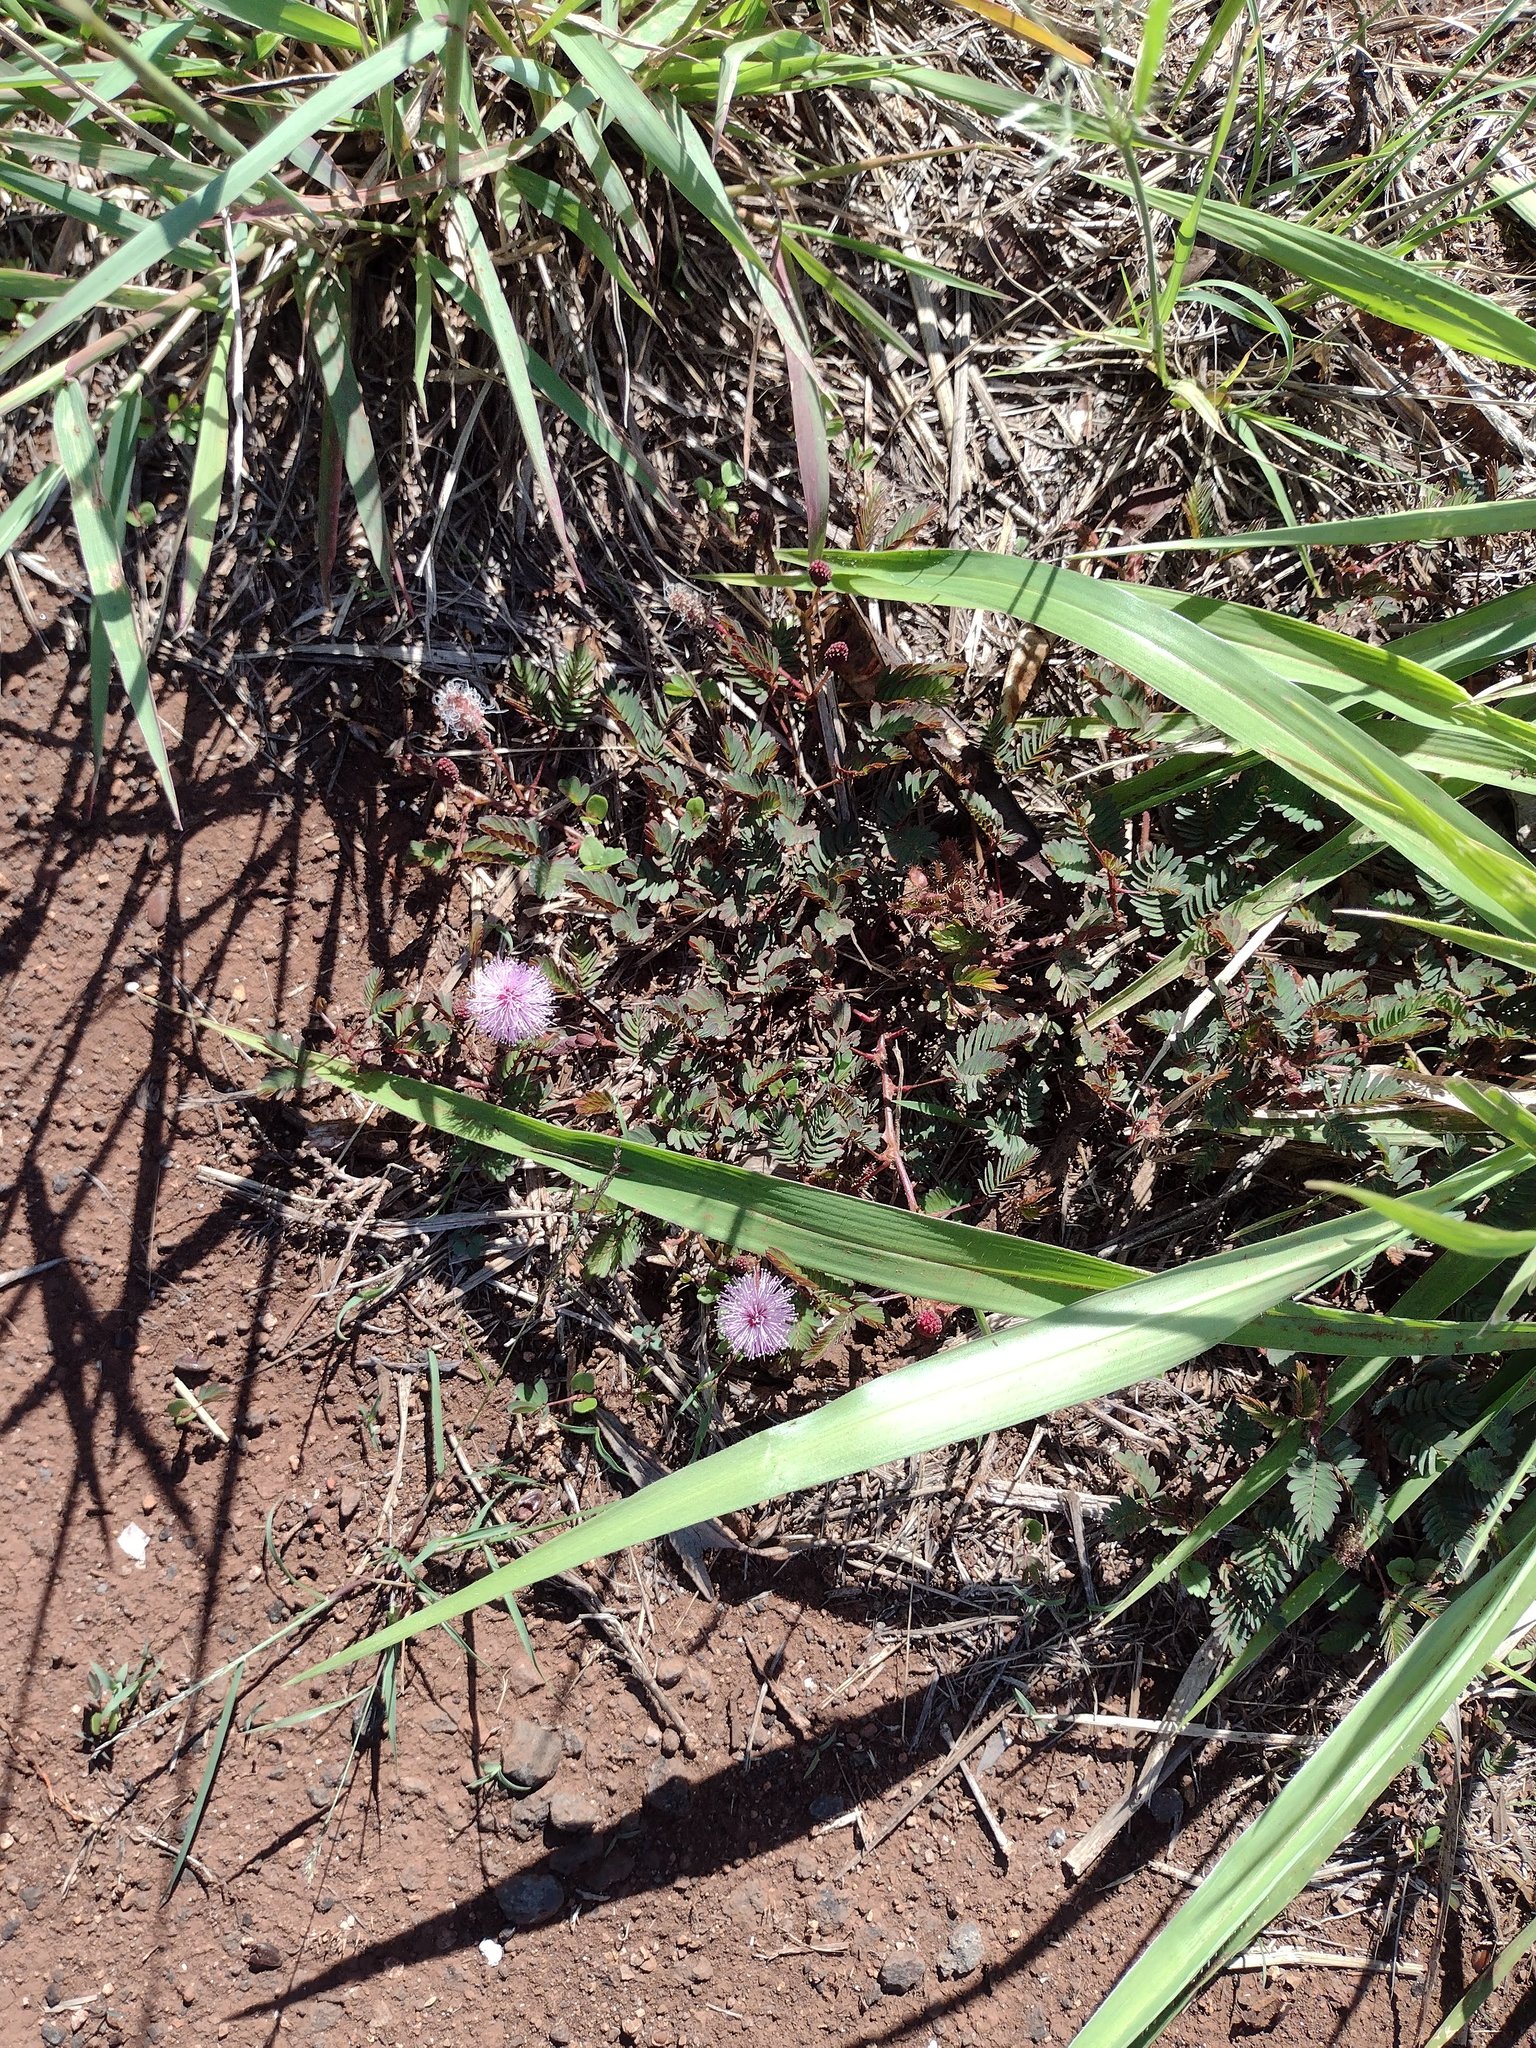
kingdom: Plantae
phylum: Tracheophyta
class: Magnoliopsida
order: Fabales
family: Fabaceae
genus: Mimosa
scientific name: Mimosa pudica
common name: Sensitive plant
